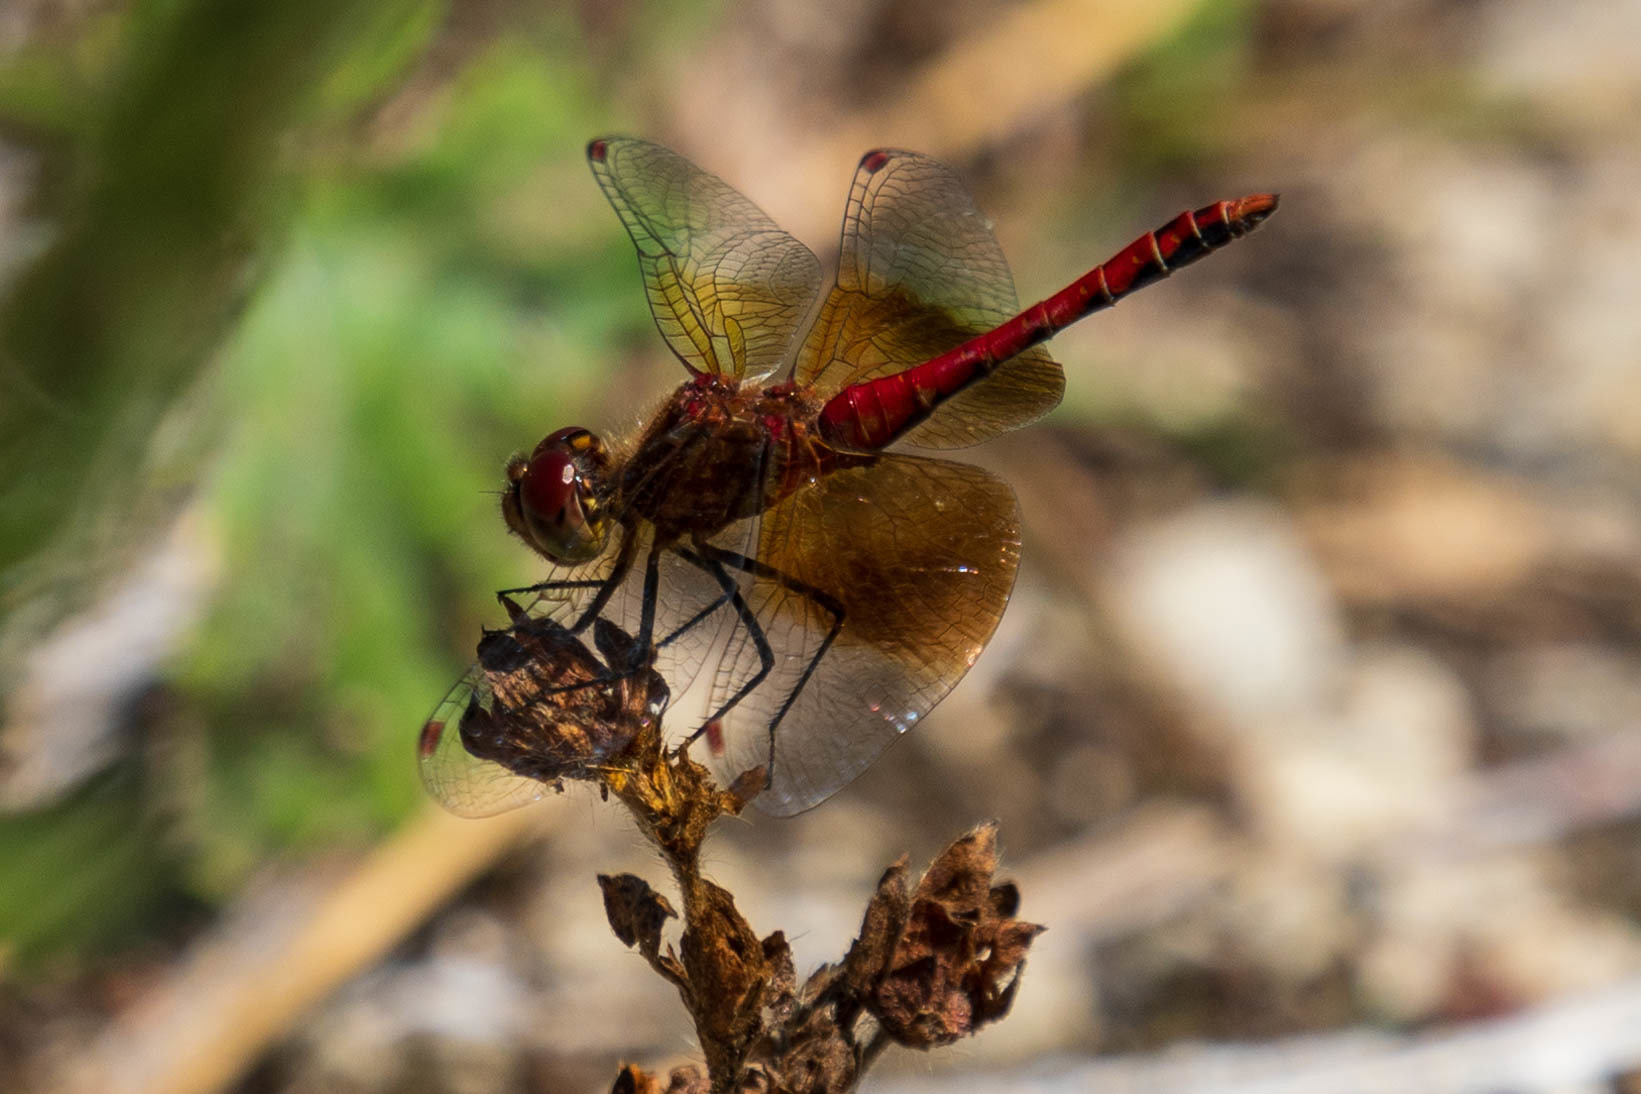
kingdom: Animalia
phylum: Arthropoda
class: Insecta
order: Odonata
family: Libellulidae
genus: Sympetrum
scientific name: Sympetrum semicinctum
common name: Band-winged meadowhawk
